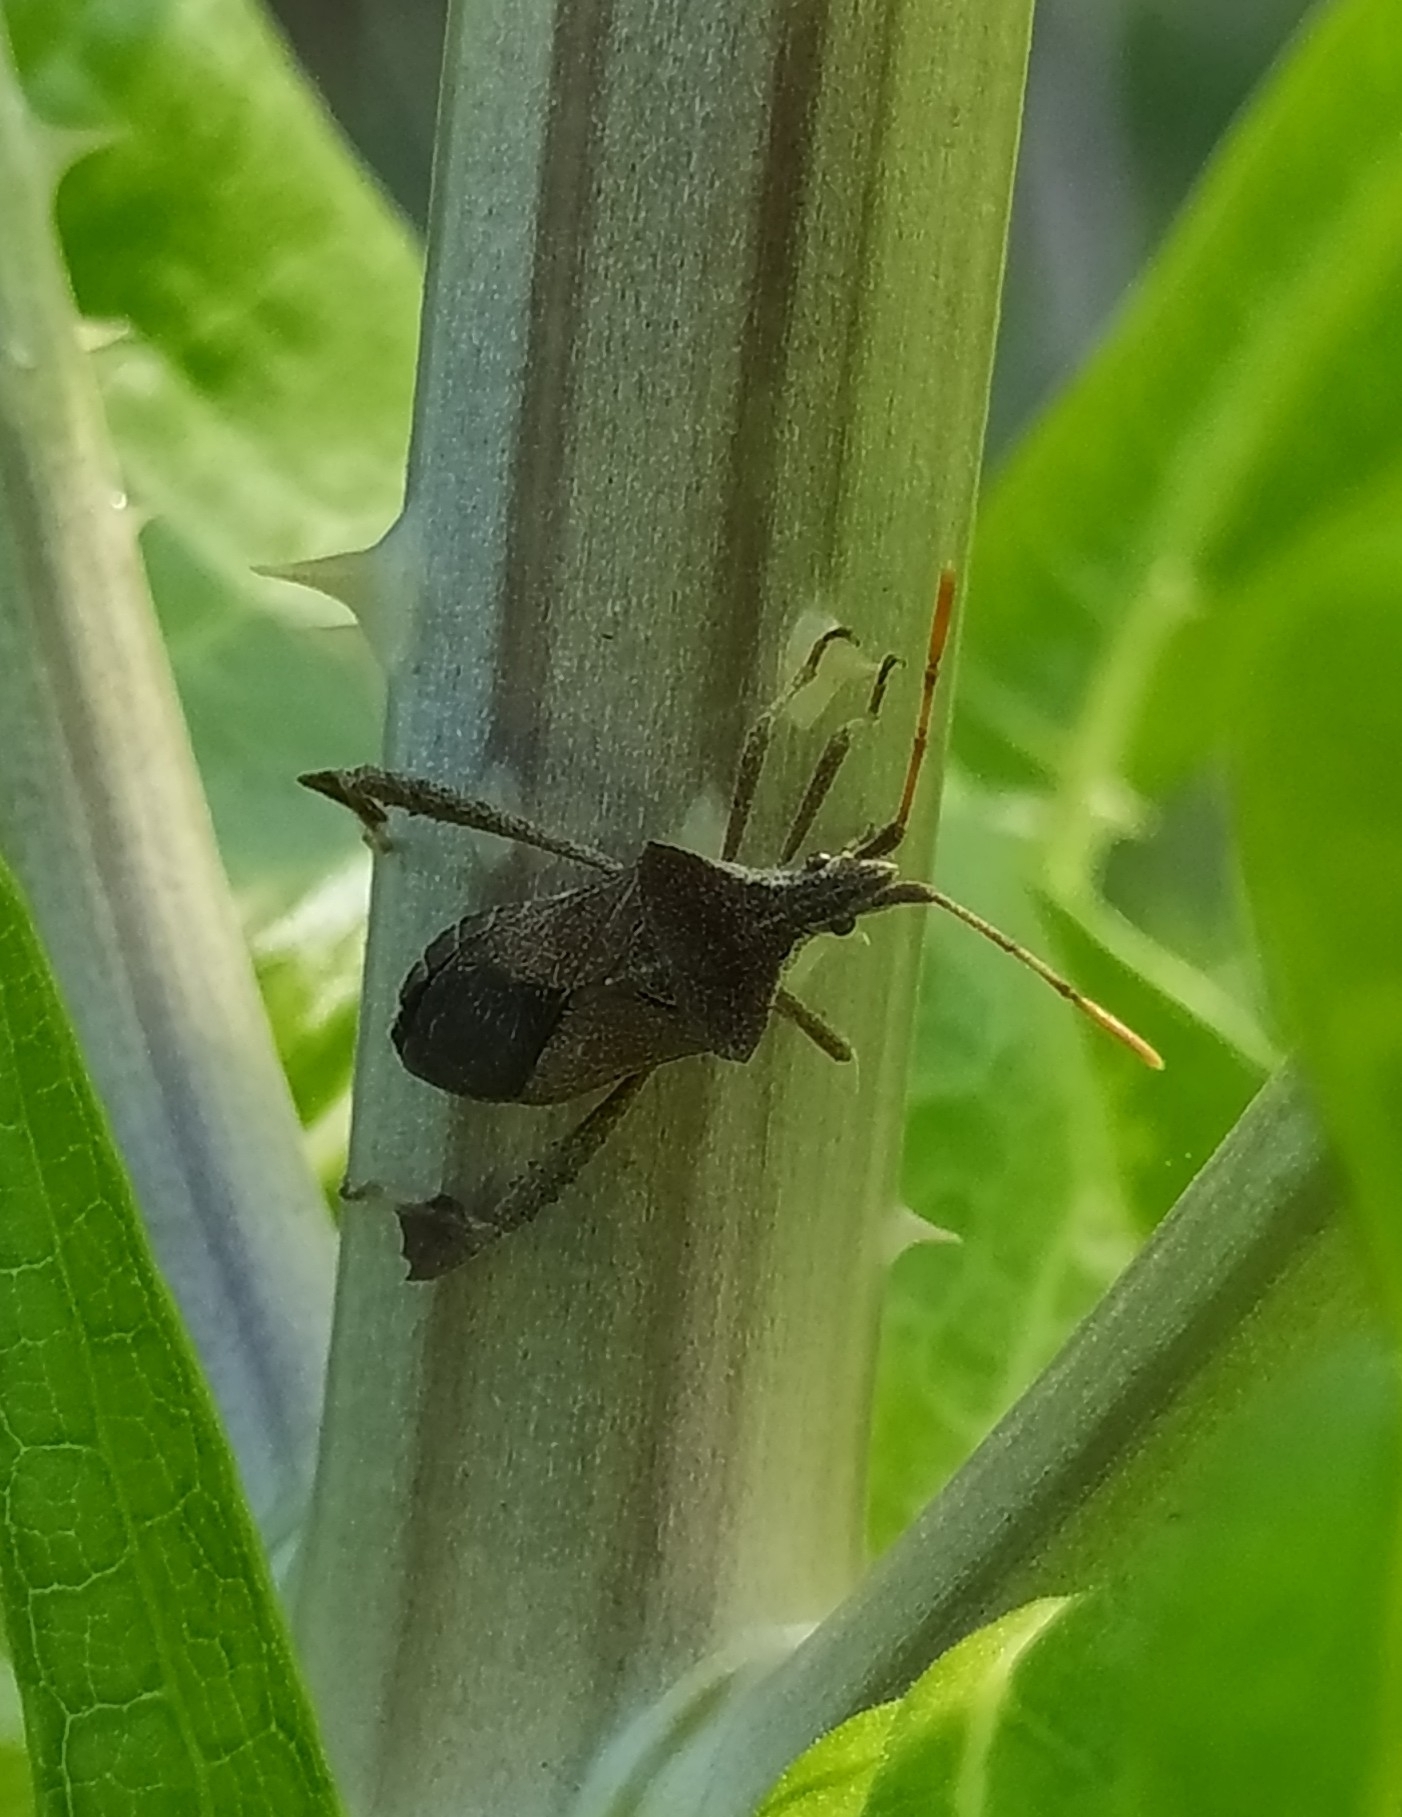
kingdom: Animalia
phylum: Arthropoda
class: Insecta
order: Hemiptera
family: Coreidae
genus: Leptoglossus
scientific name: Leptoglossus concaviusculus
